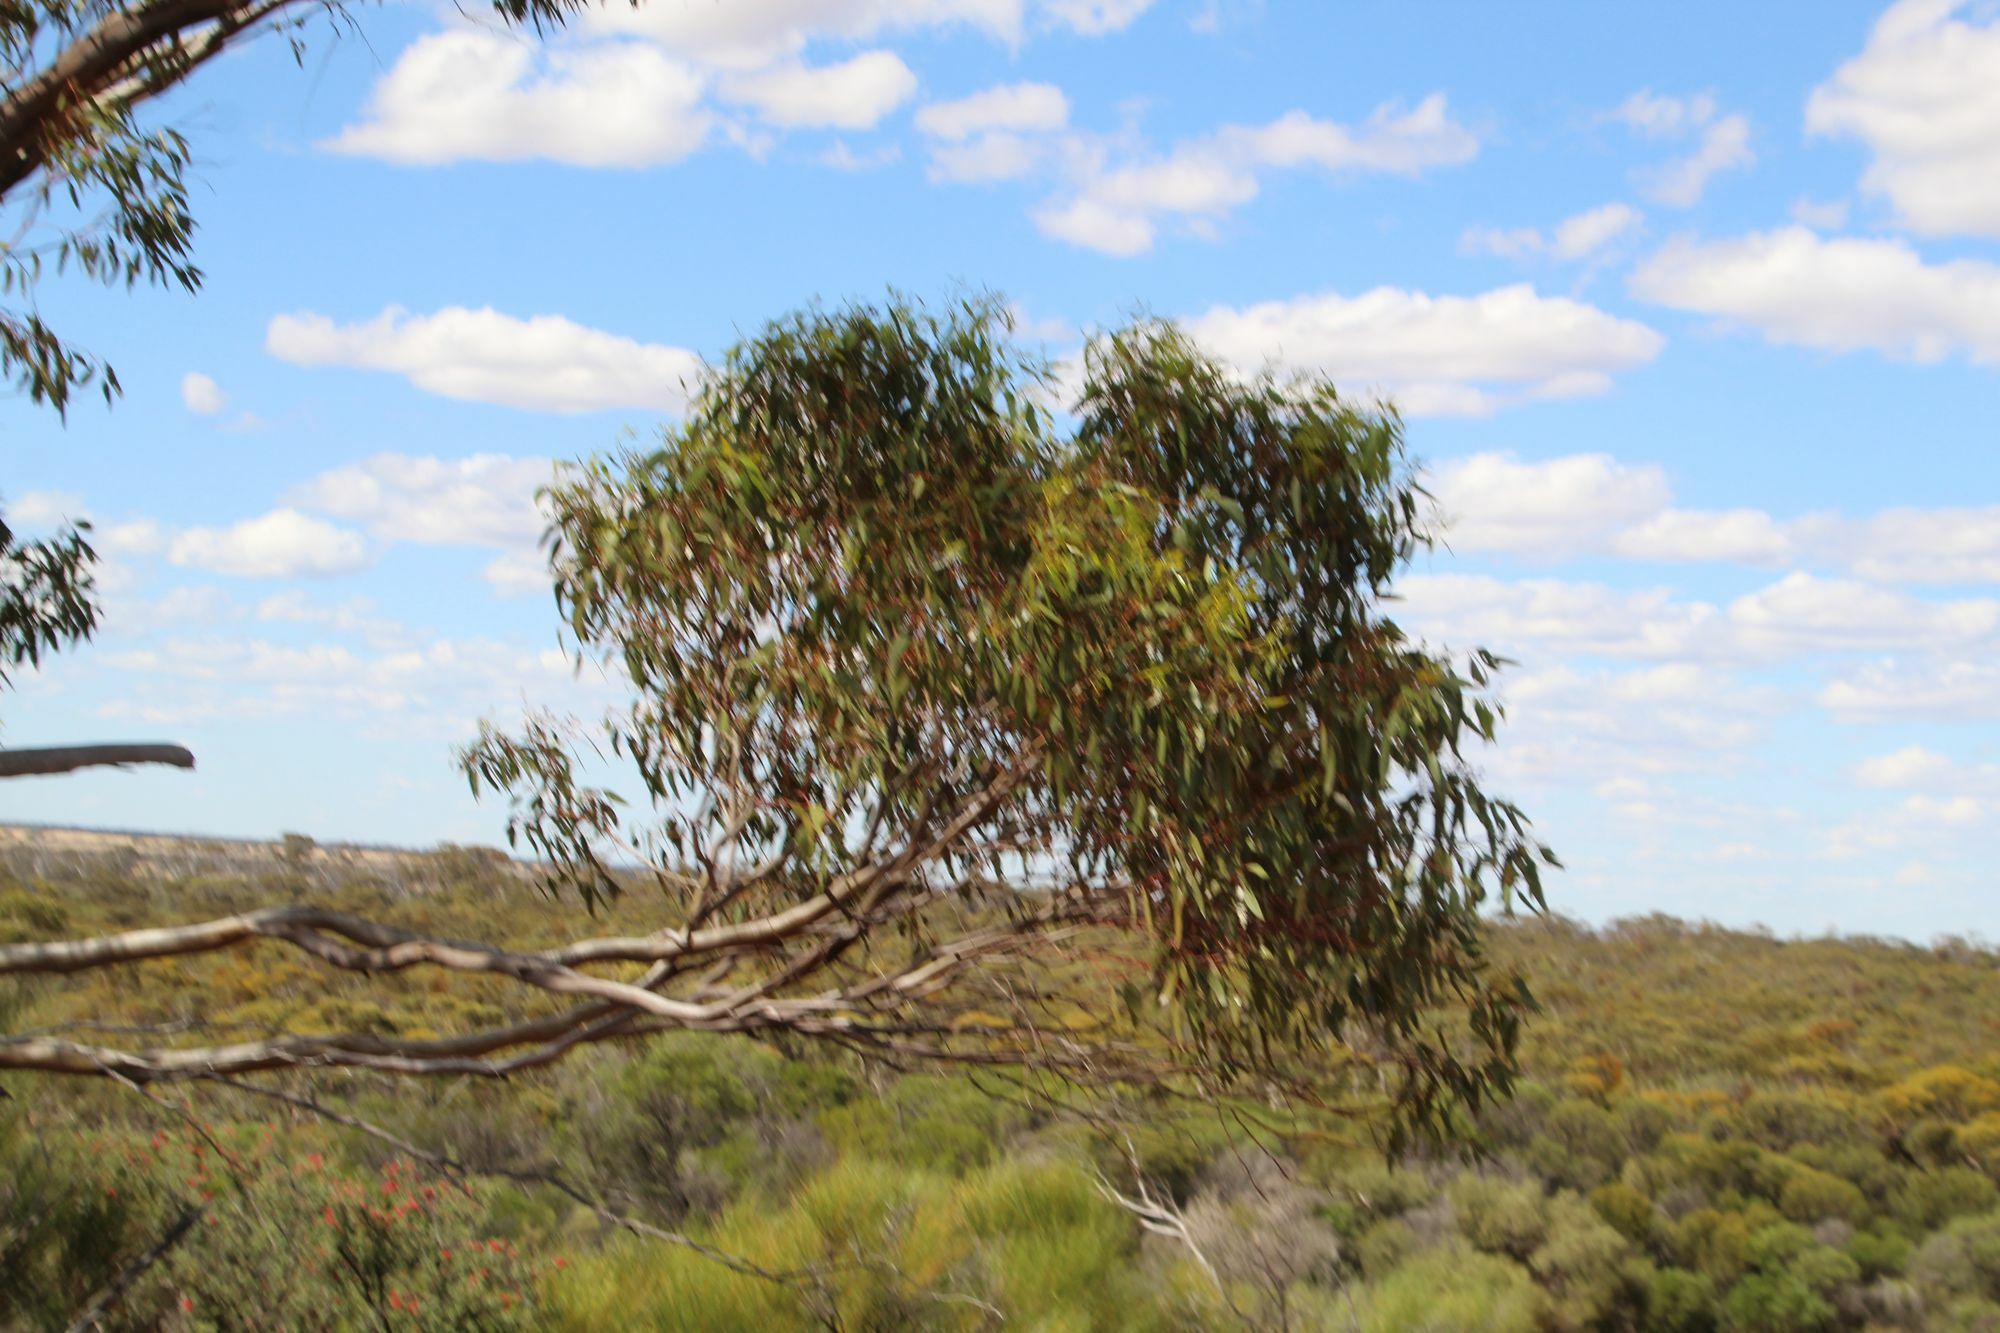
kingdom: Plantae
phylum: Tracheophyta
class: Magnoliopsida
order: Myrtales
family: Myrtaceae
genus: Eucalyptus
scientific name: Eucalyptus petraea
